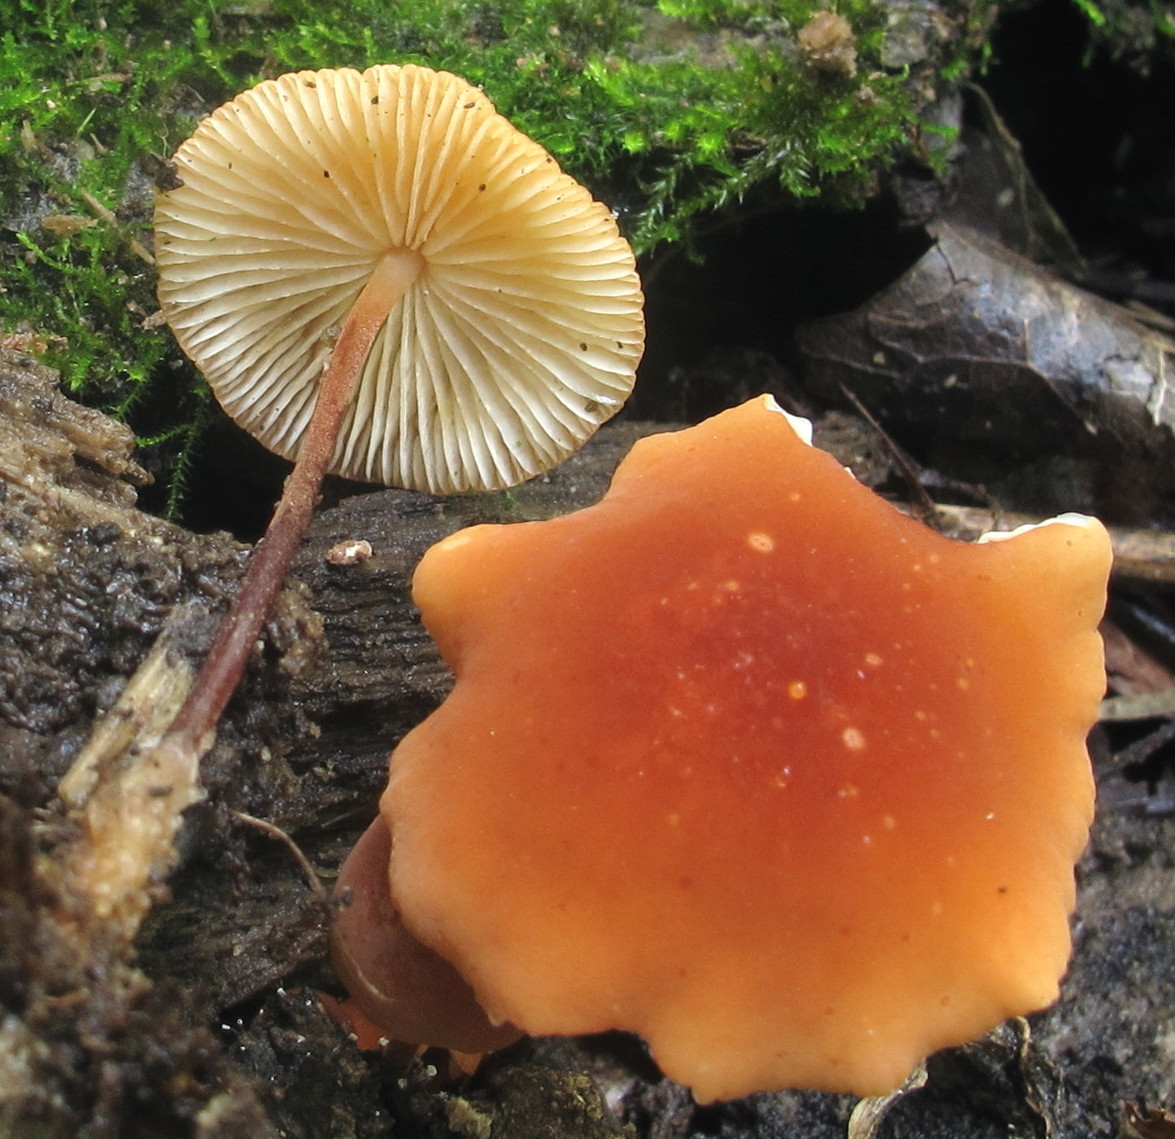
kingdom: Fungi
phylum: Basidiomycota
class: Agaricomycetes
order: Agaricales
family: Marasmiaceae
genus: Marasmius
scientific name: Marasmius sullivantii
